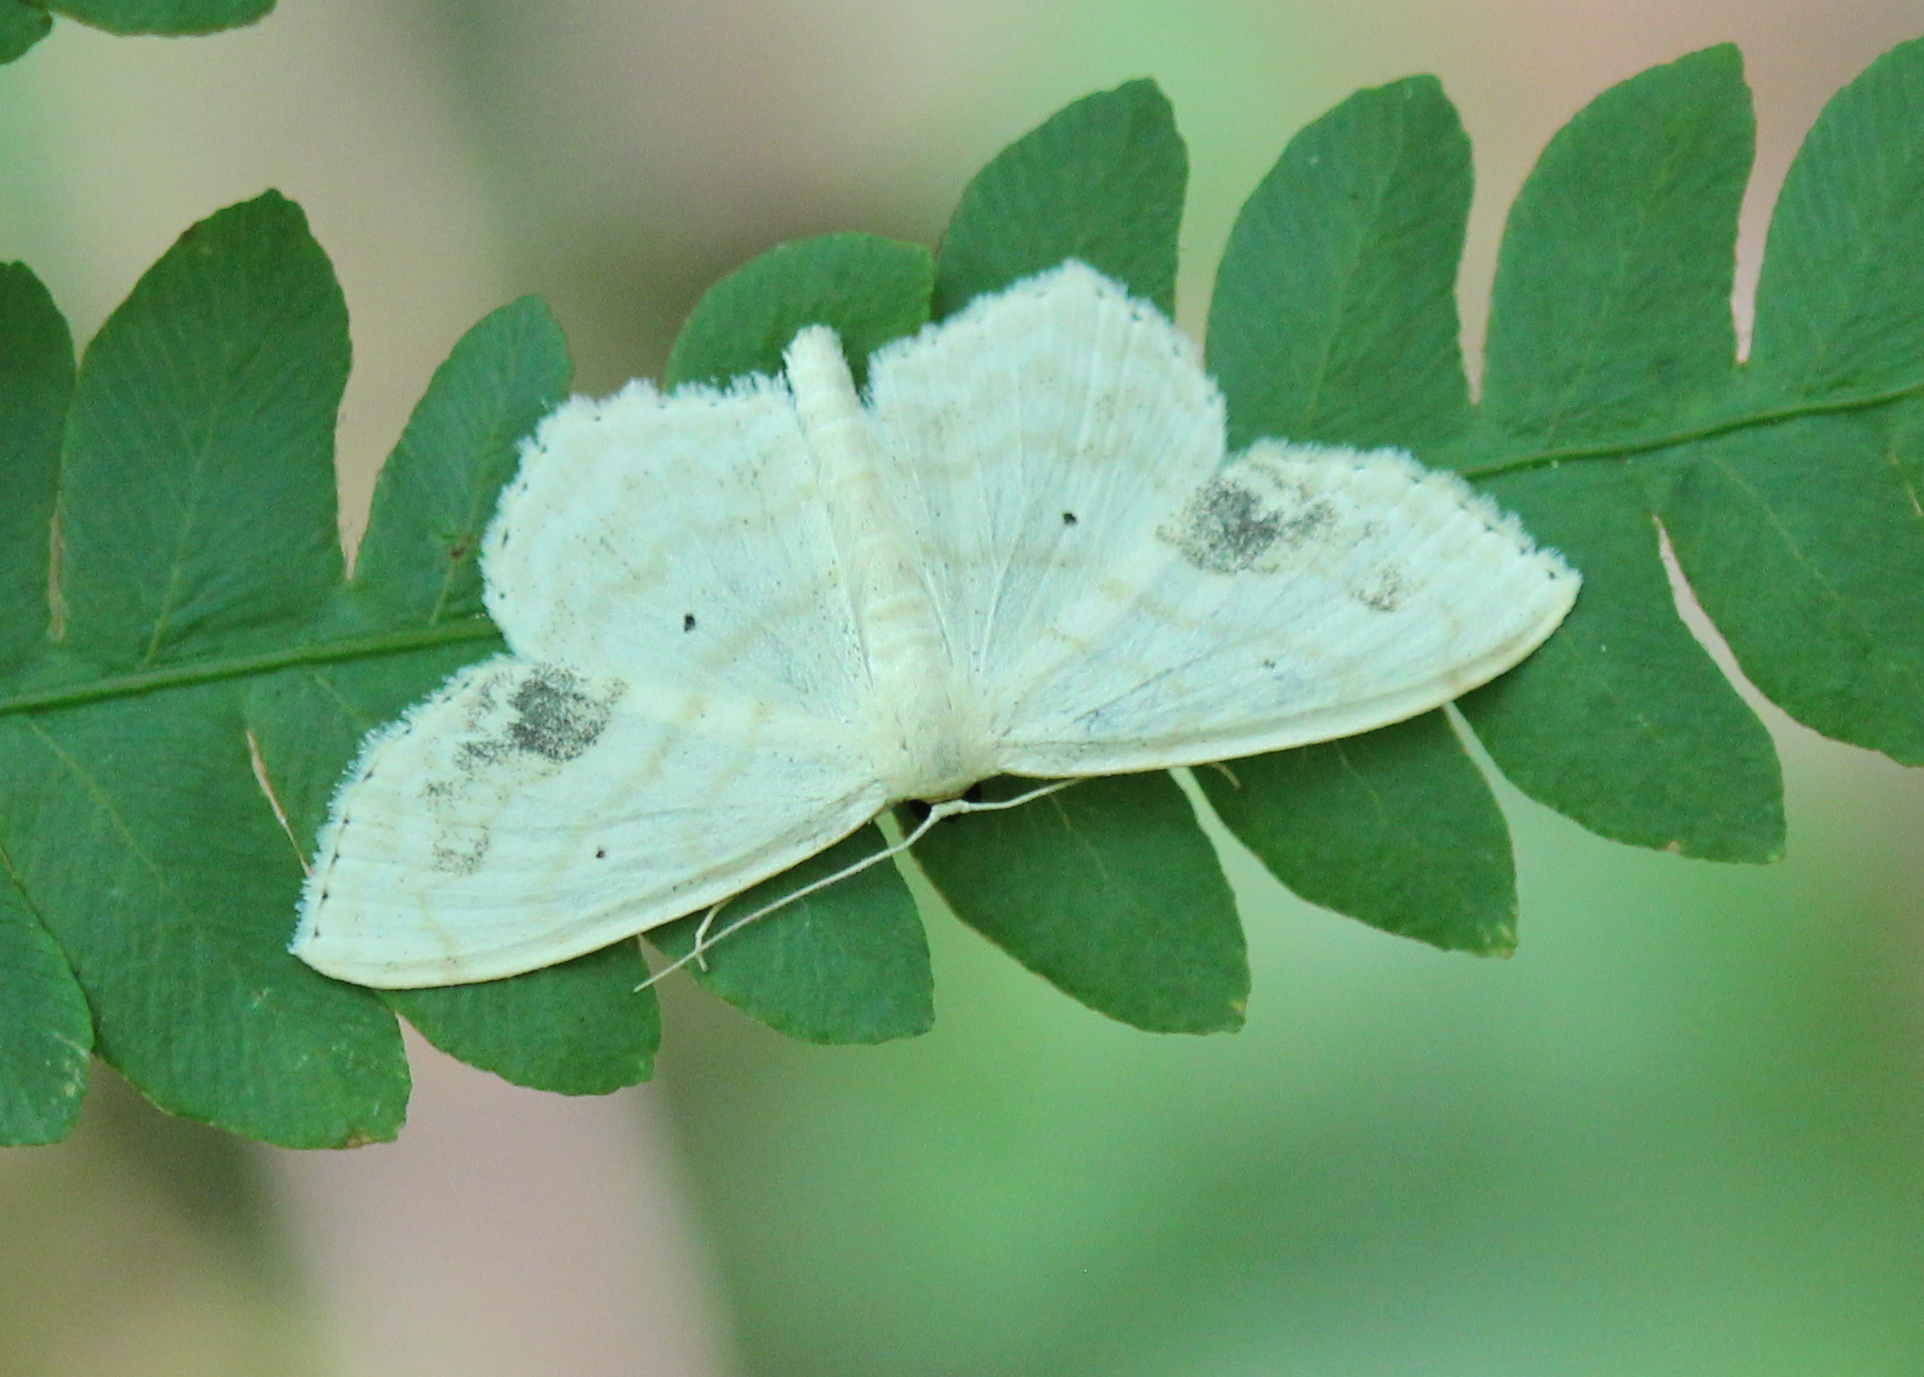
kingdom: Animalia
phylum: Arthropoda
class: Insecta
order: Lepidoptera
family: Geometridae
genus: Scopula
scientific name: Scopula limboundata
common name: Large lace border
